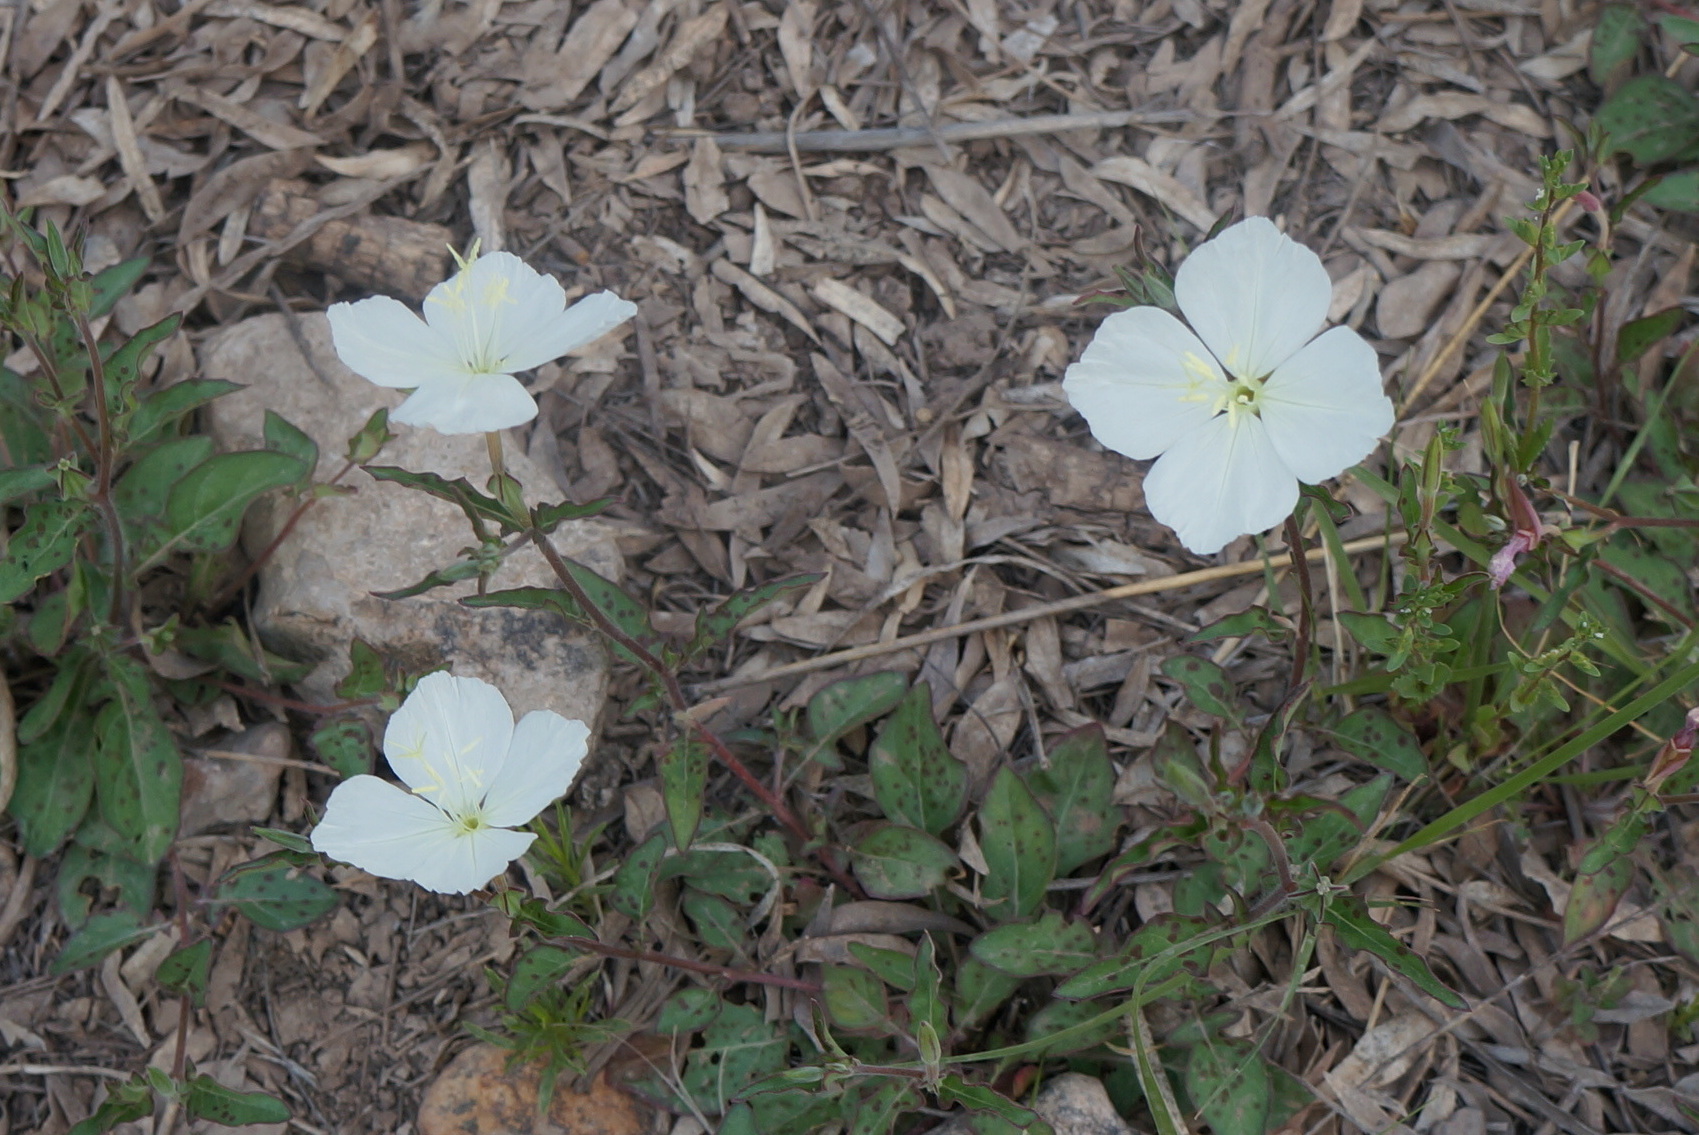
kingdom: Plantae
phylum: Tracheophyta
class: Magnoliopsida
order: Myrtales
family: Onagraceae
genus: Oenothera
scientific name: Oenothera tetraptera
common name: Four-wing evening-primrose
